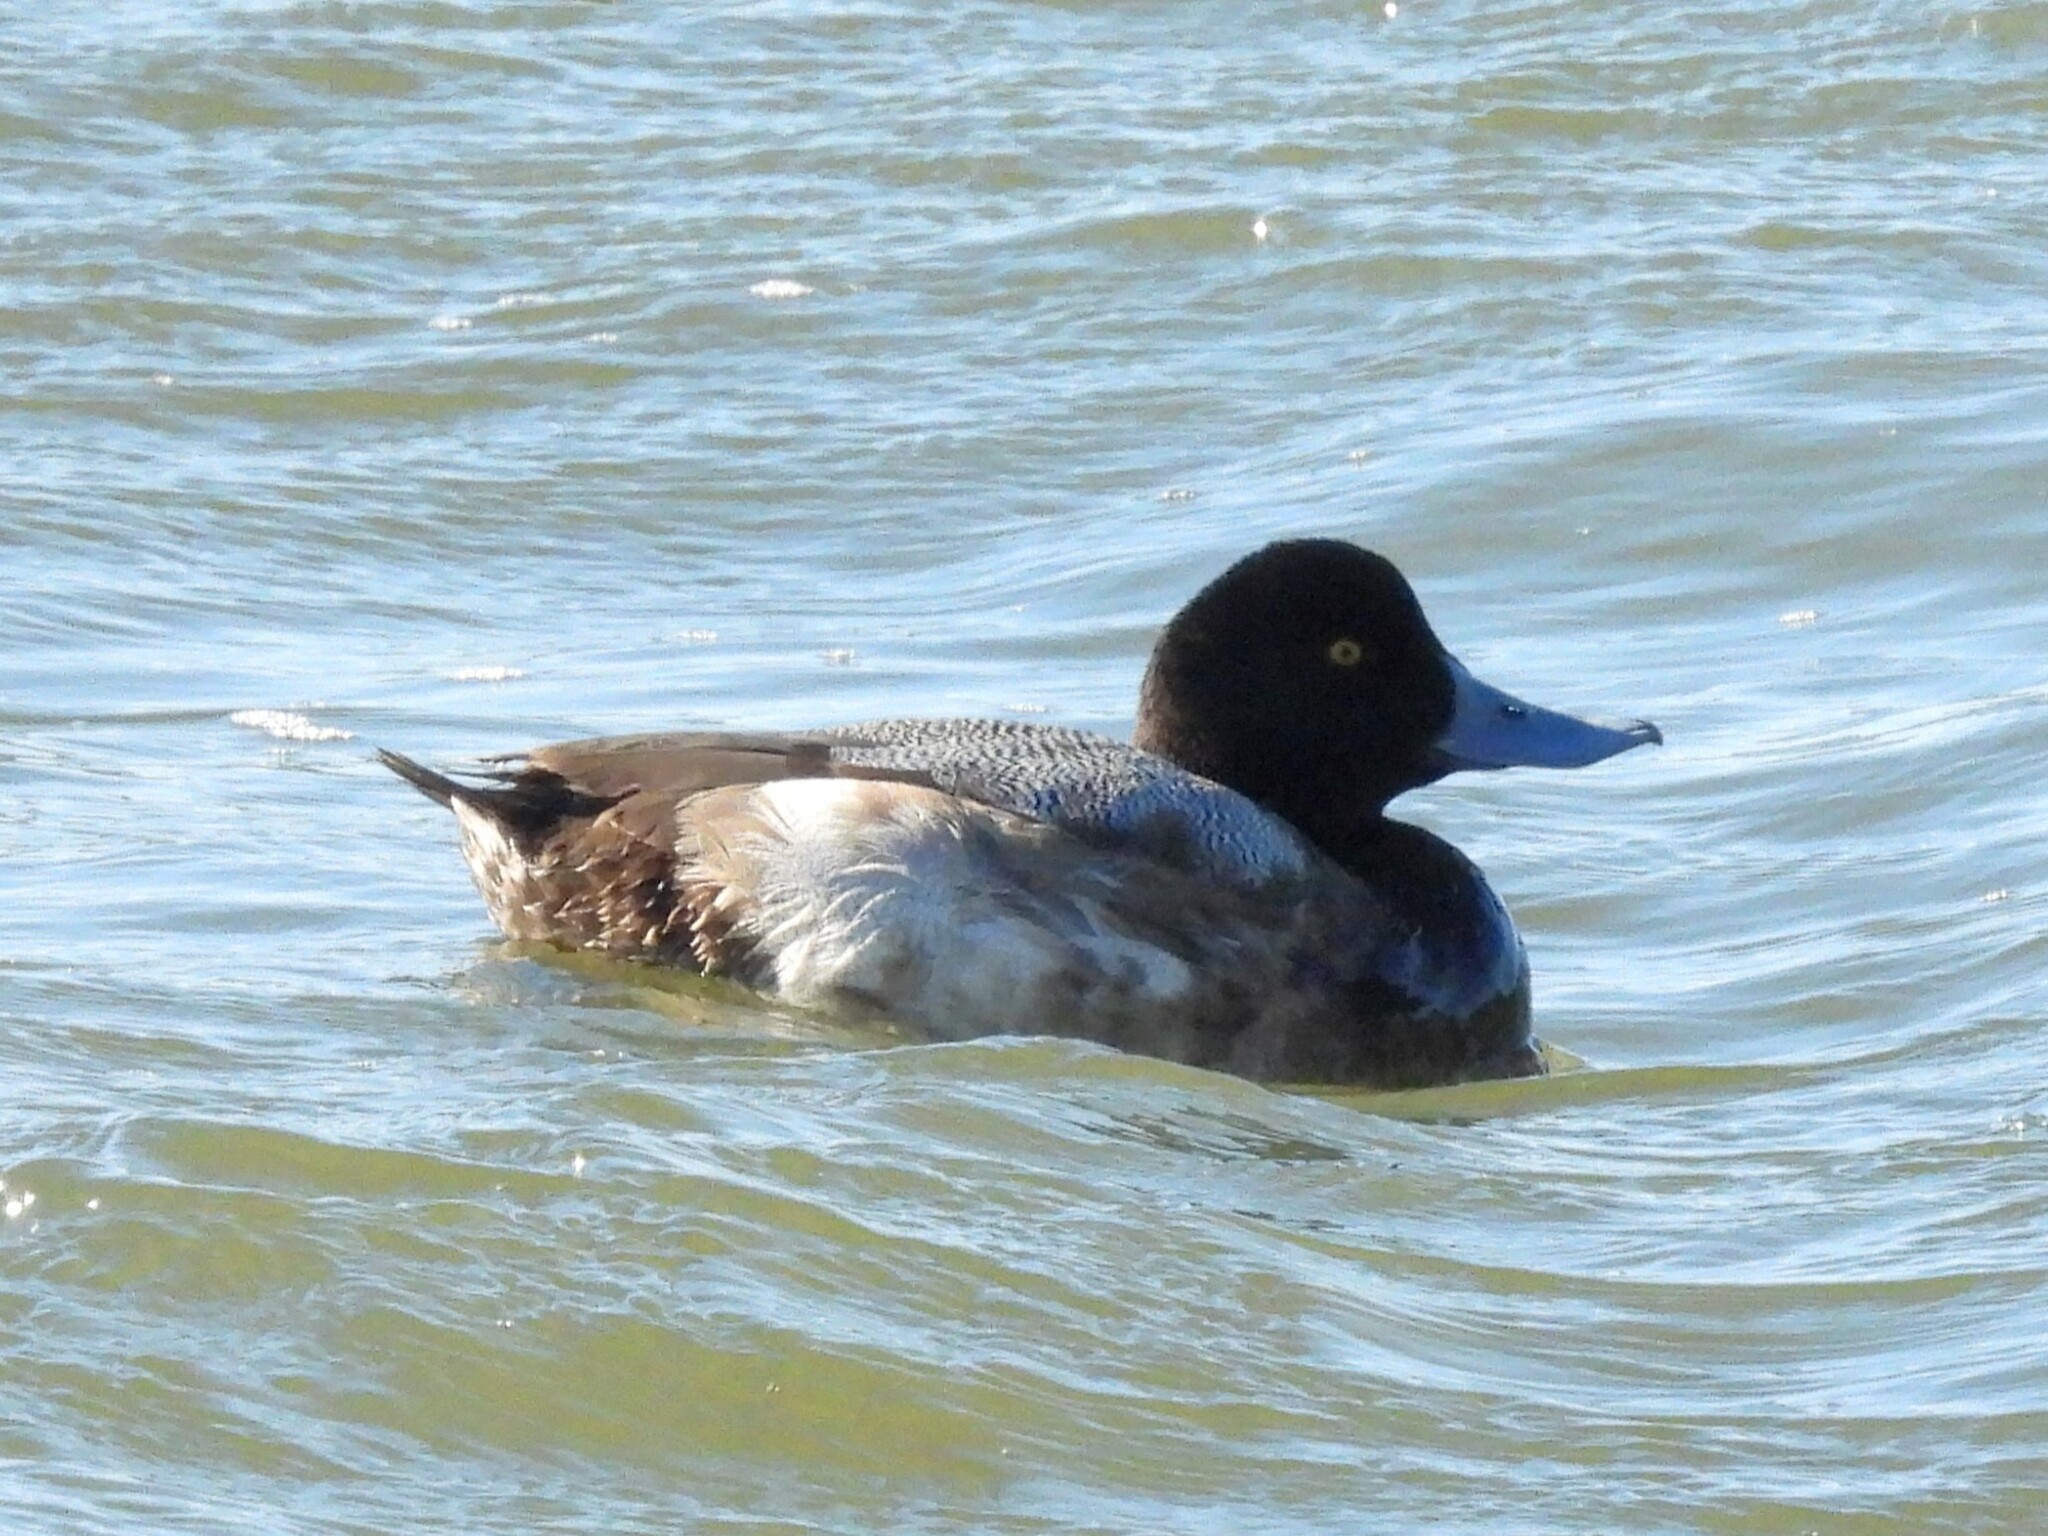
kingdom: Animalia
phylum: Chordata
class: Aves
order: Anseriformes
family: Anatidae
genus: Aythya
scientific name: Aythya marila
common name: Greater scaup
